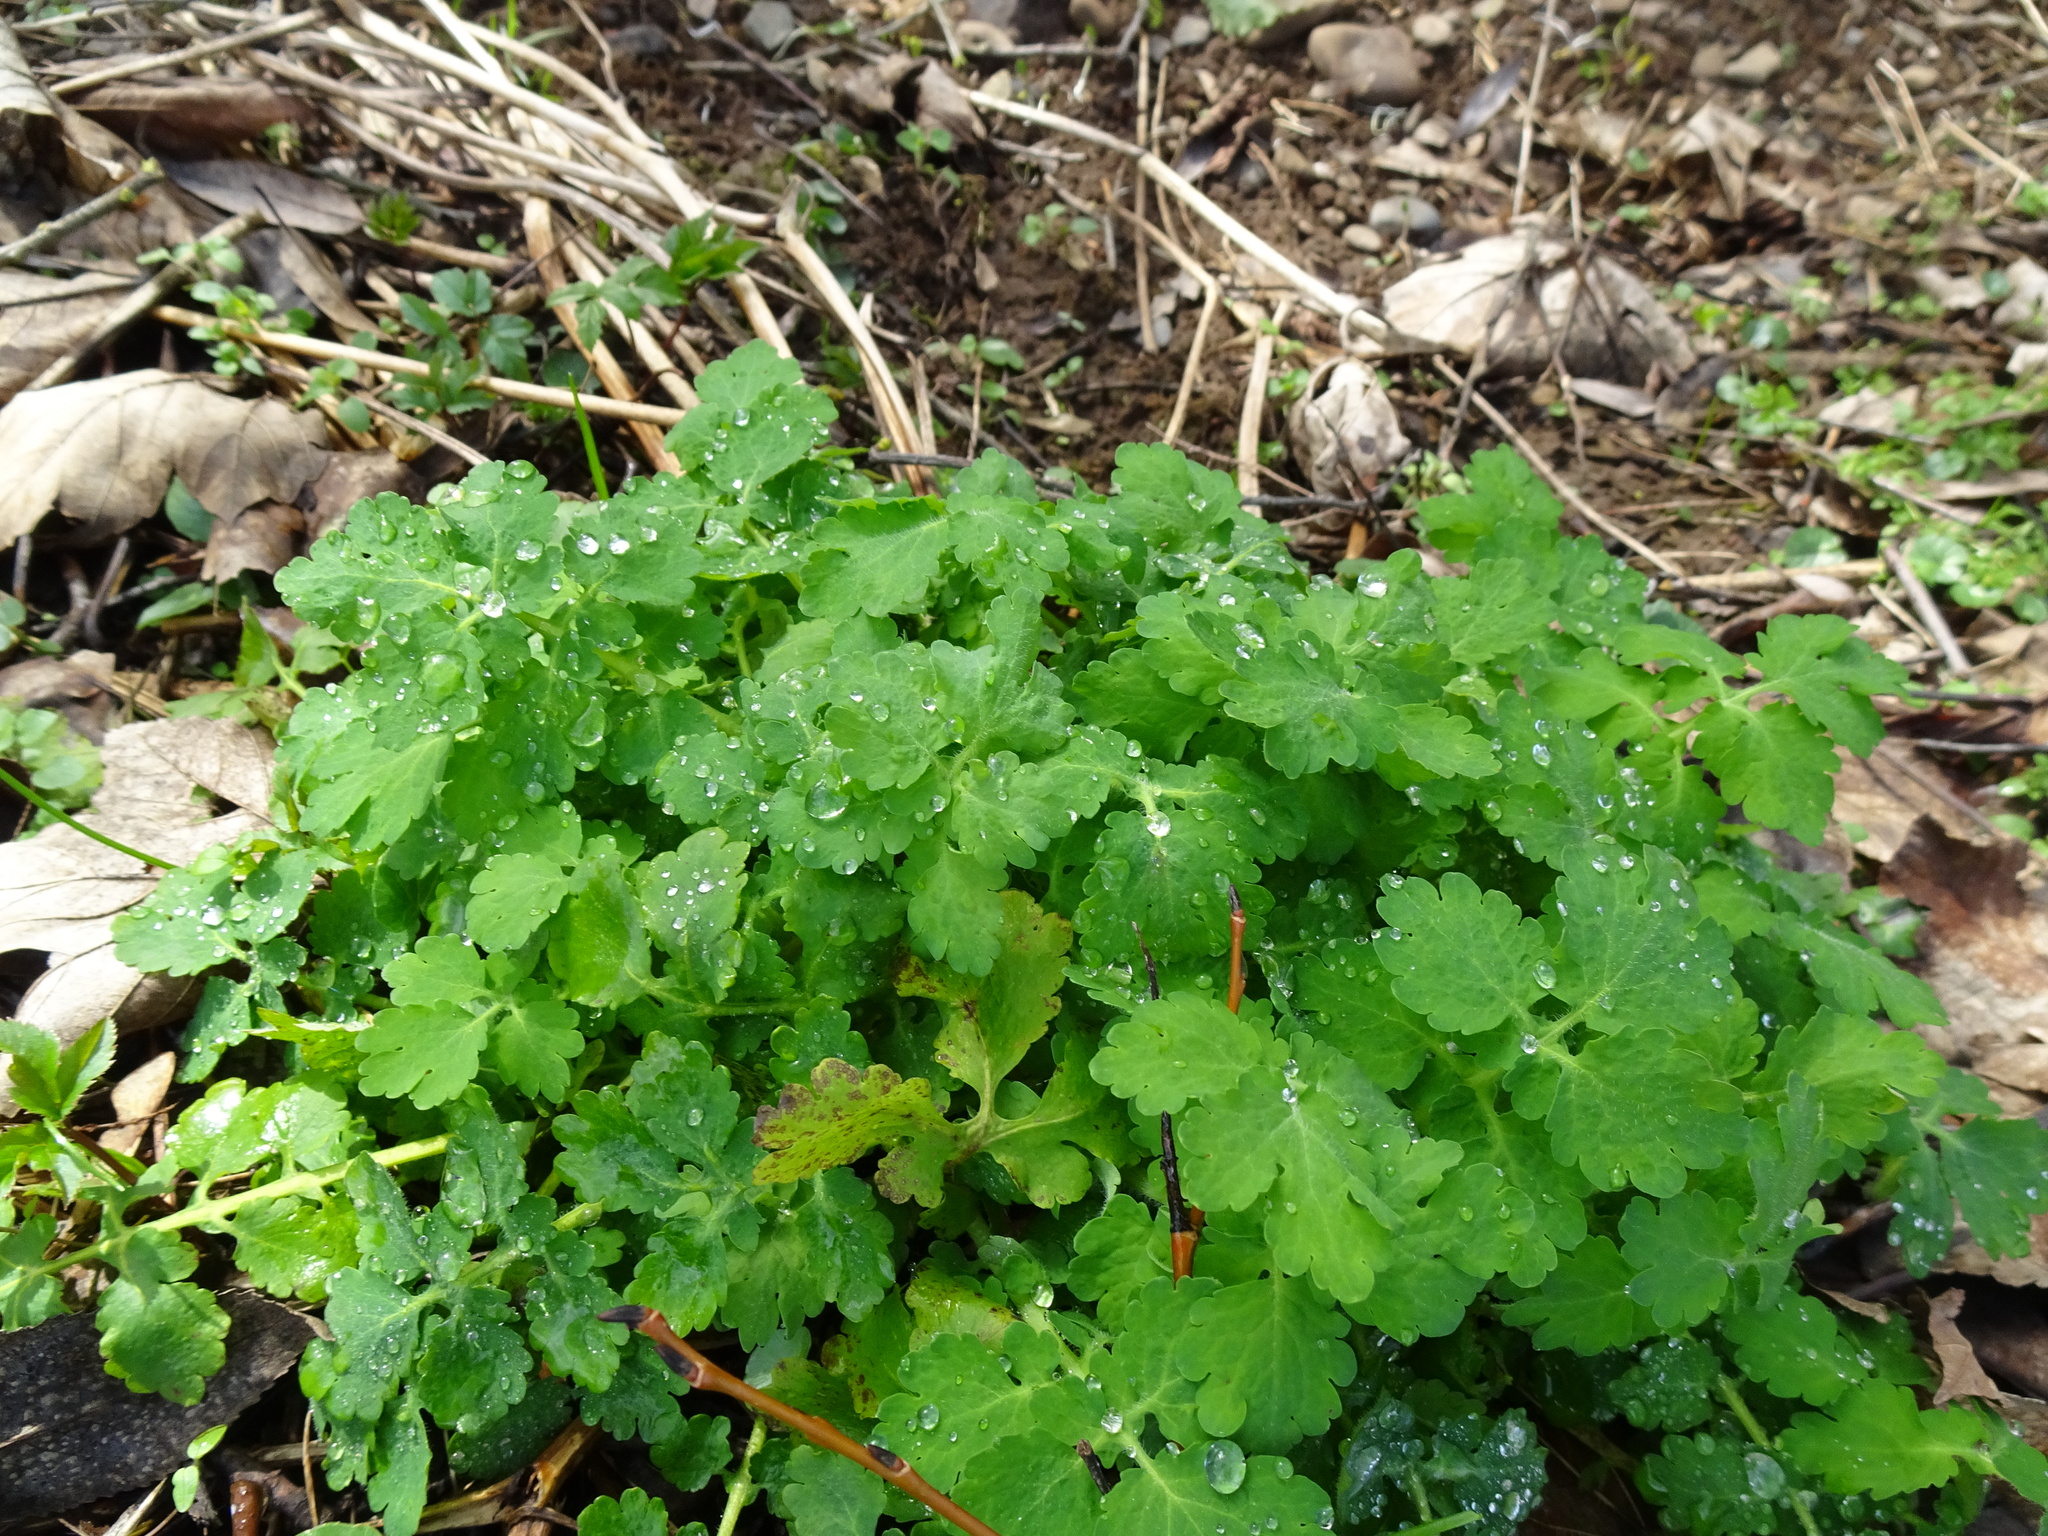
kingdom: Plantae
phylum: Tracheophyta
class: Magnoliopsida
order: Ranunculales
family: Papaveraceae
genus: Chelidonium
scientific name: Chelidonium majus
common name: Greater celandine
